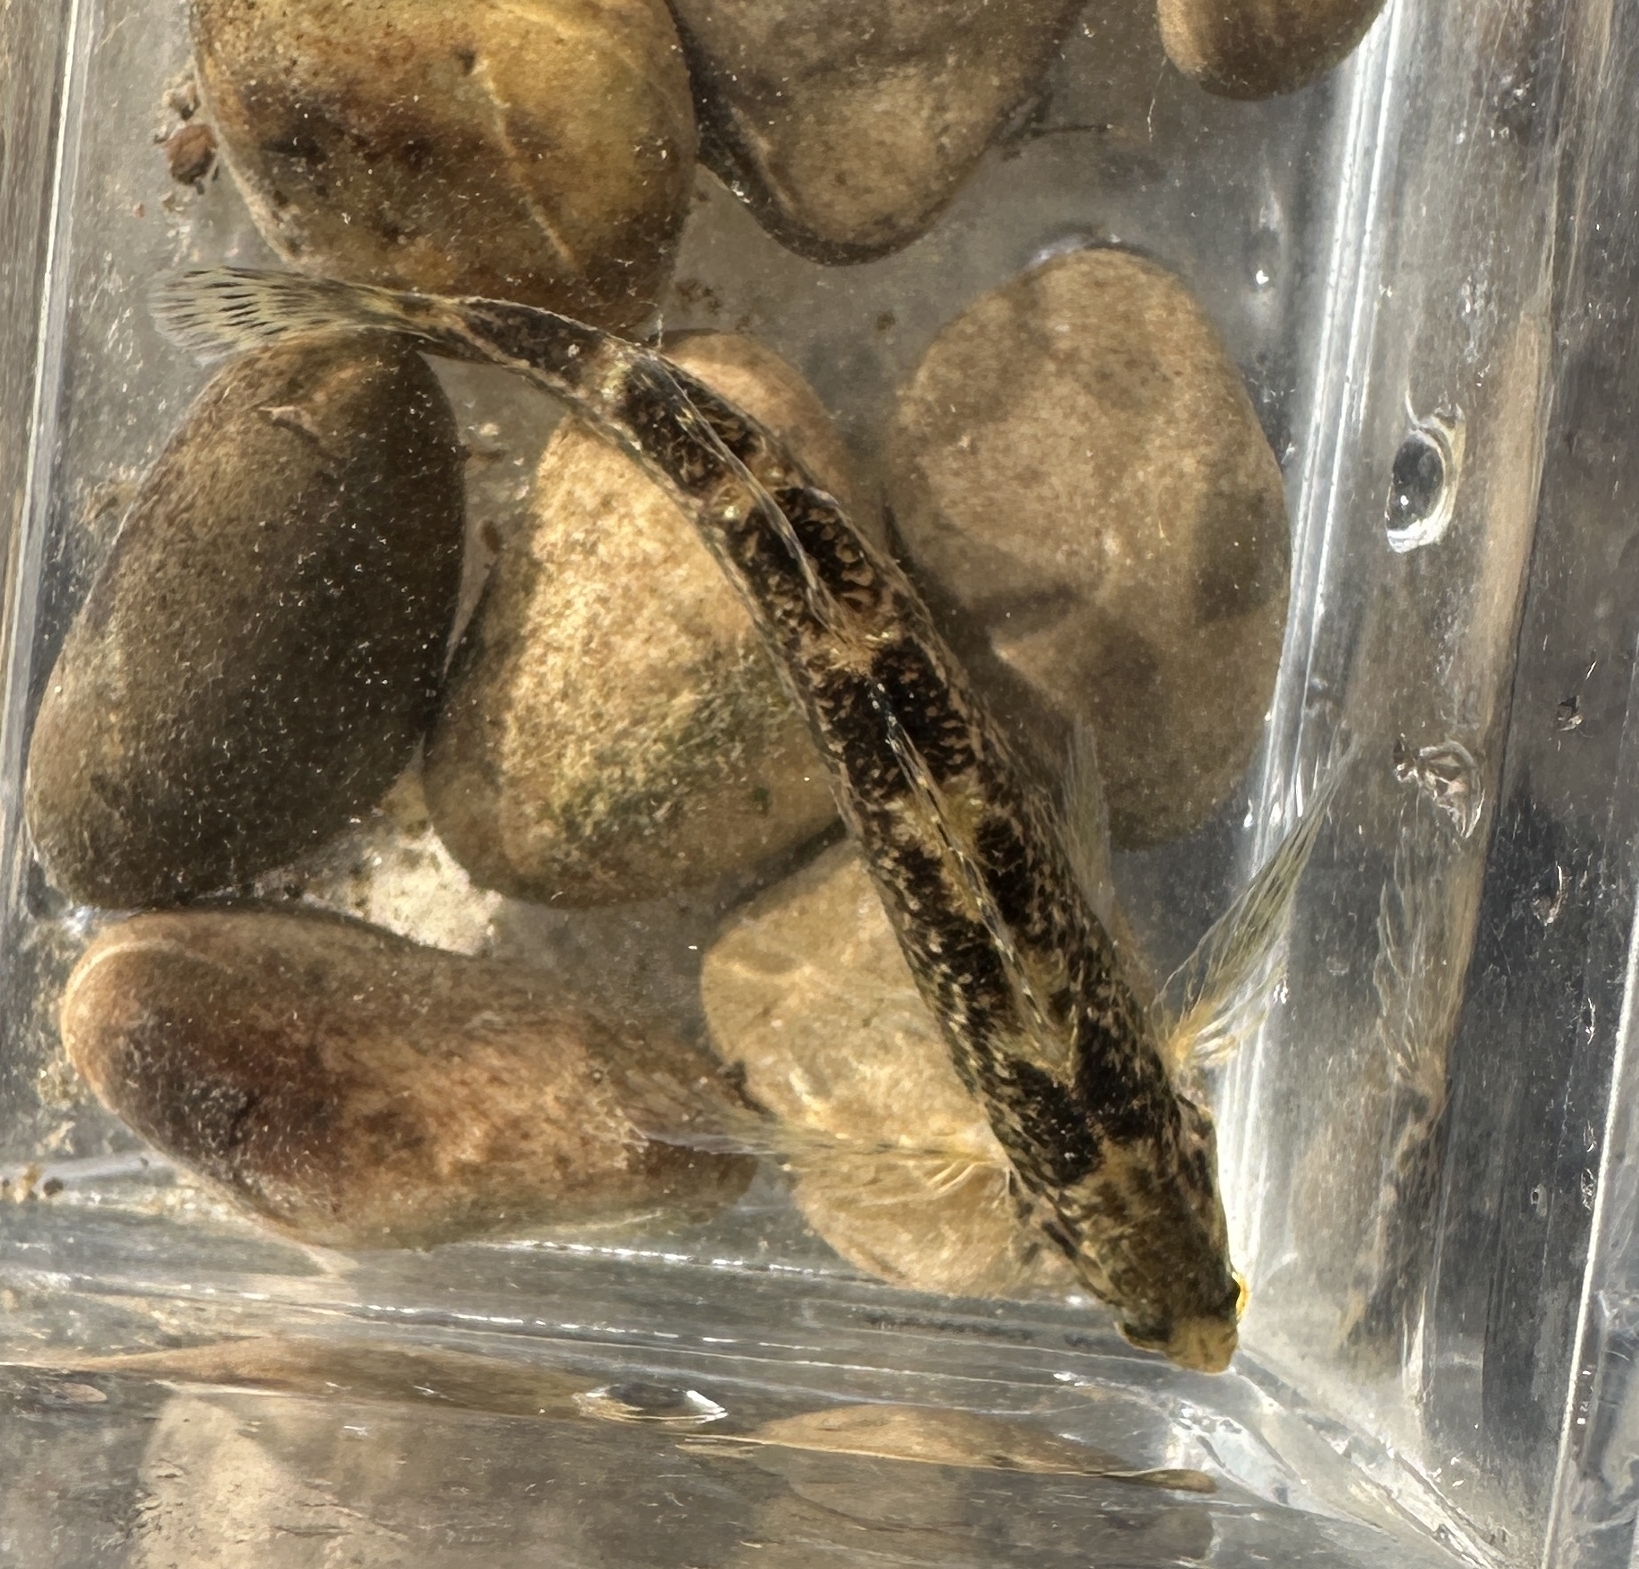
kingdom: Animalia
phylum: Chordata
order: Perciformes
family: Percidae
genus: Etheostoma
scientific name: Etheostoma zonale
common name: Banded darter
